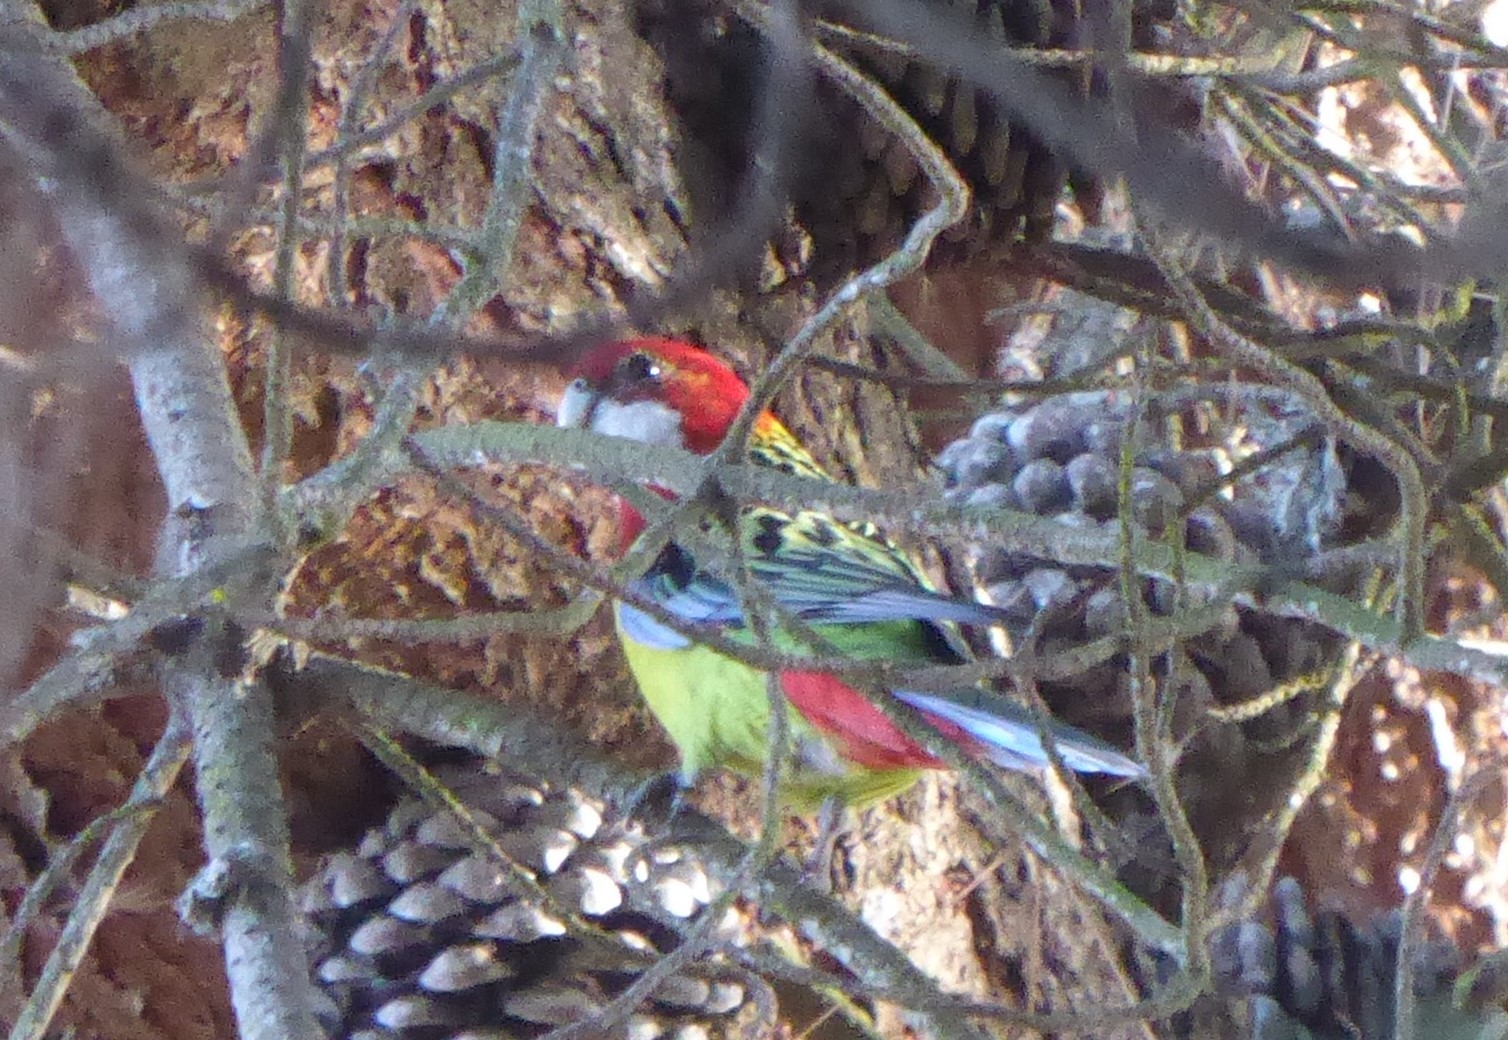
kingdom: Animalia
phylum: Chordata
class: Aves
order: Psittaciformes
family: Psittacidae
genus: Platycercus
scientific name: Platycercus eximius
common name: Eastern rosella
